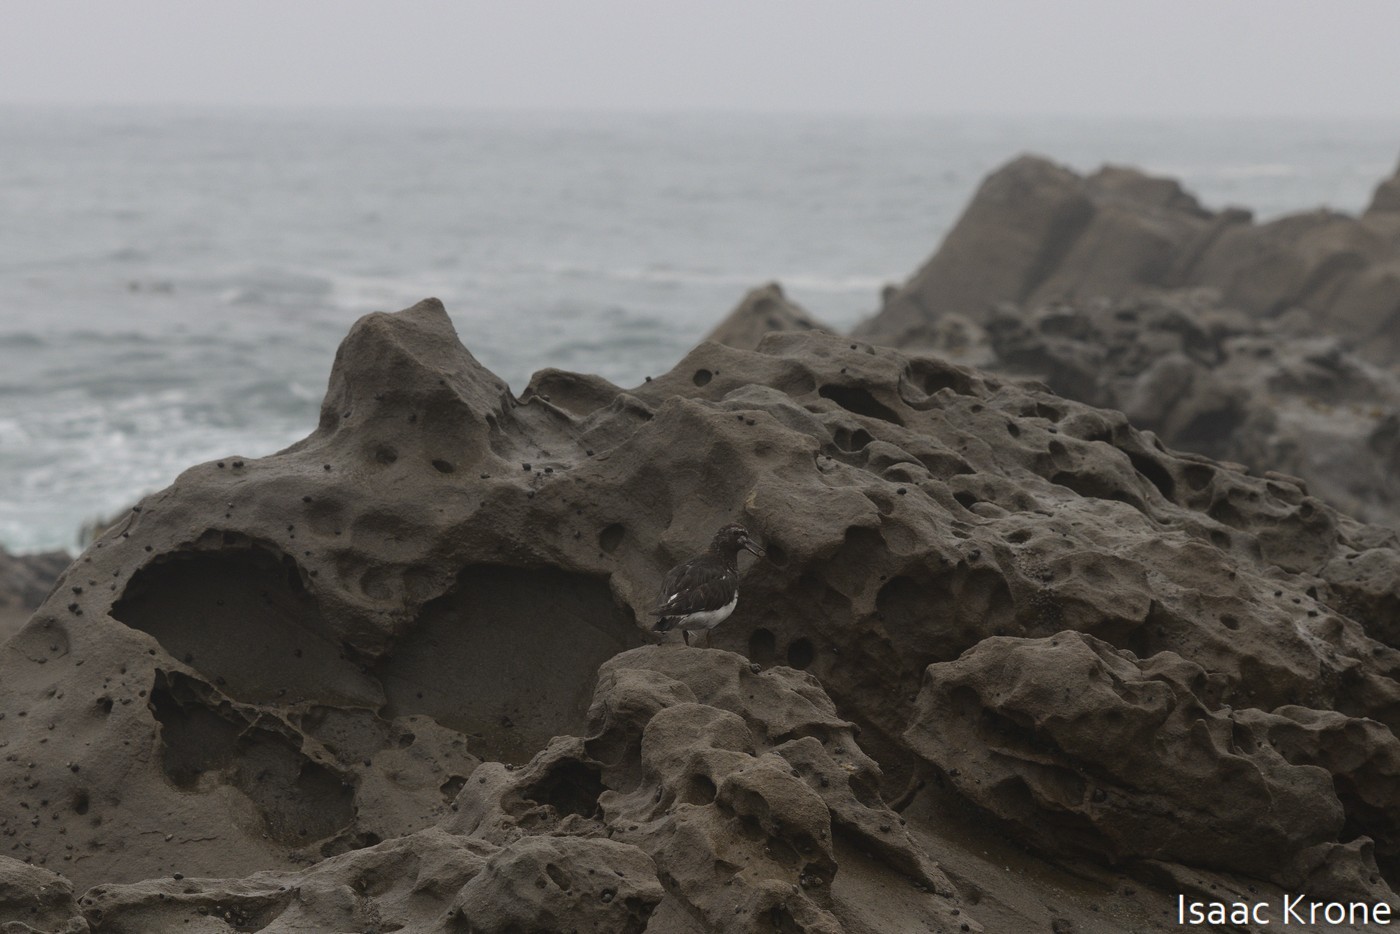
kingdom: Animalia
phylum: Chordata
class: Aves
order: Charadriiformes
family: Scolopacidae
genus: Arenaria
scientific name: Arenaria melanocephala
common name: Black turnstone
